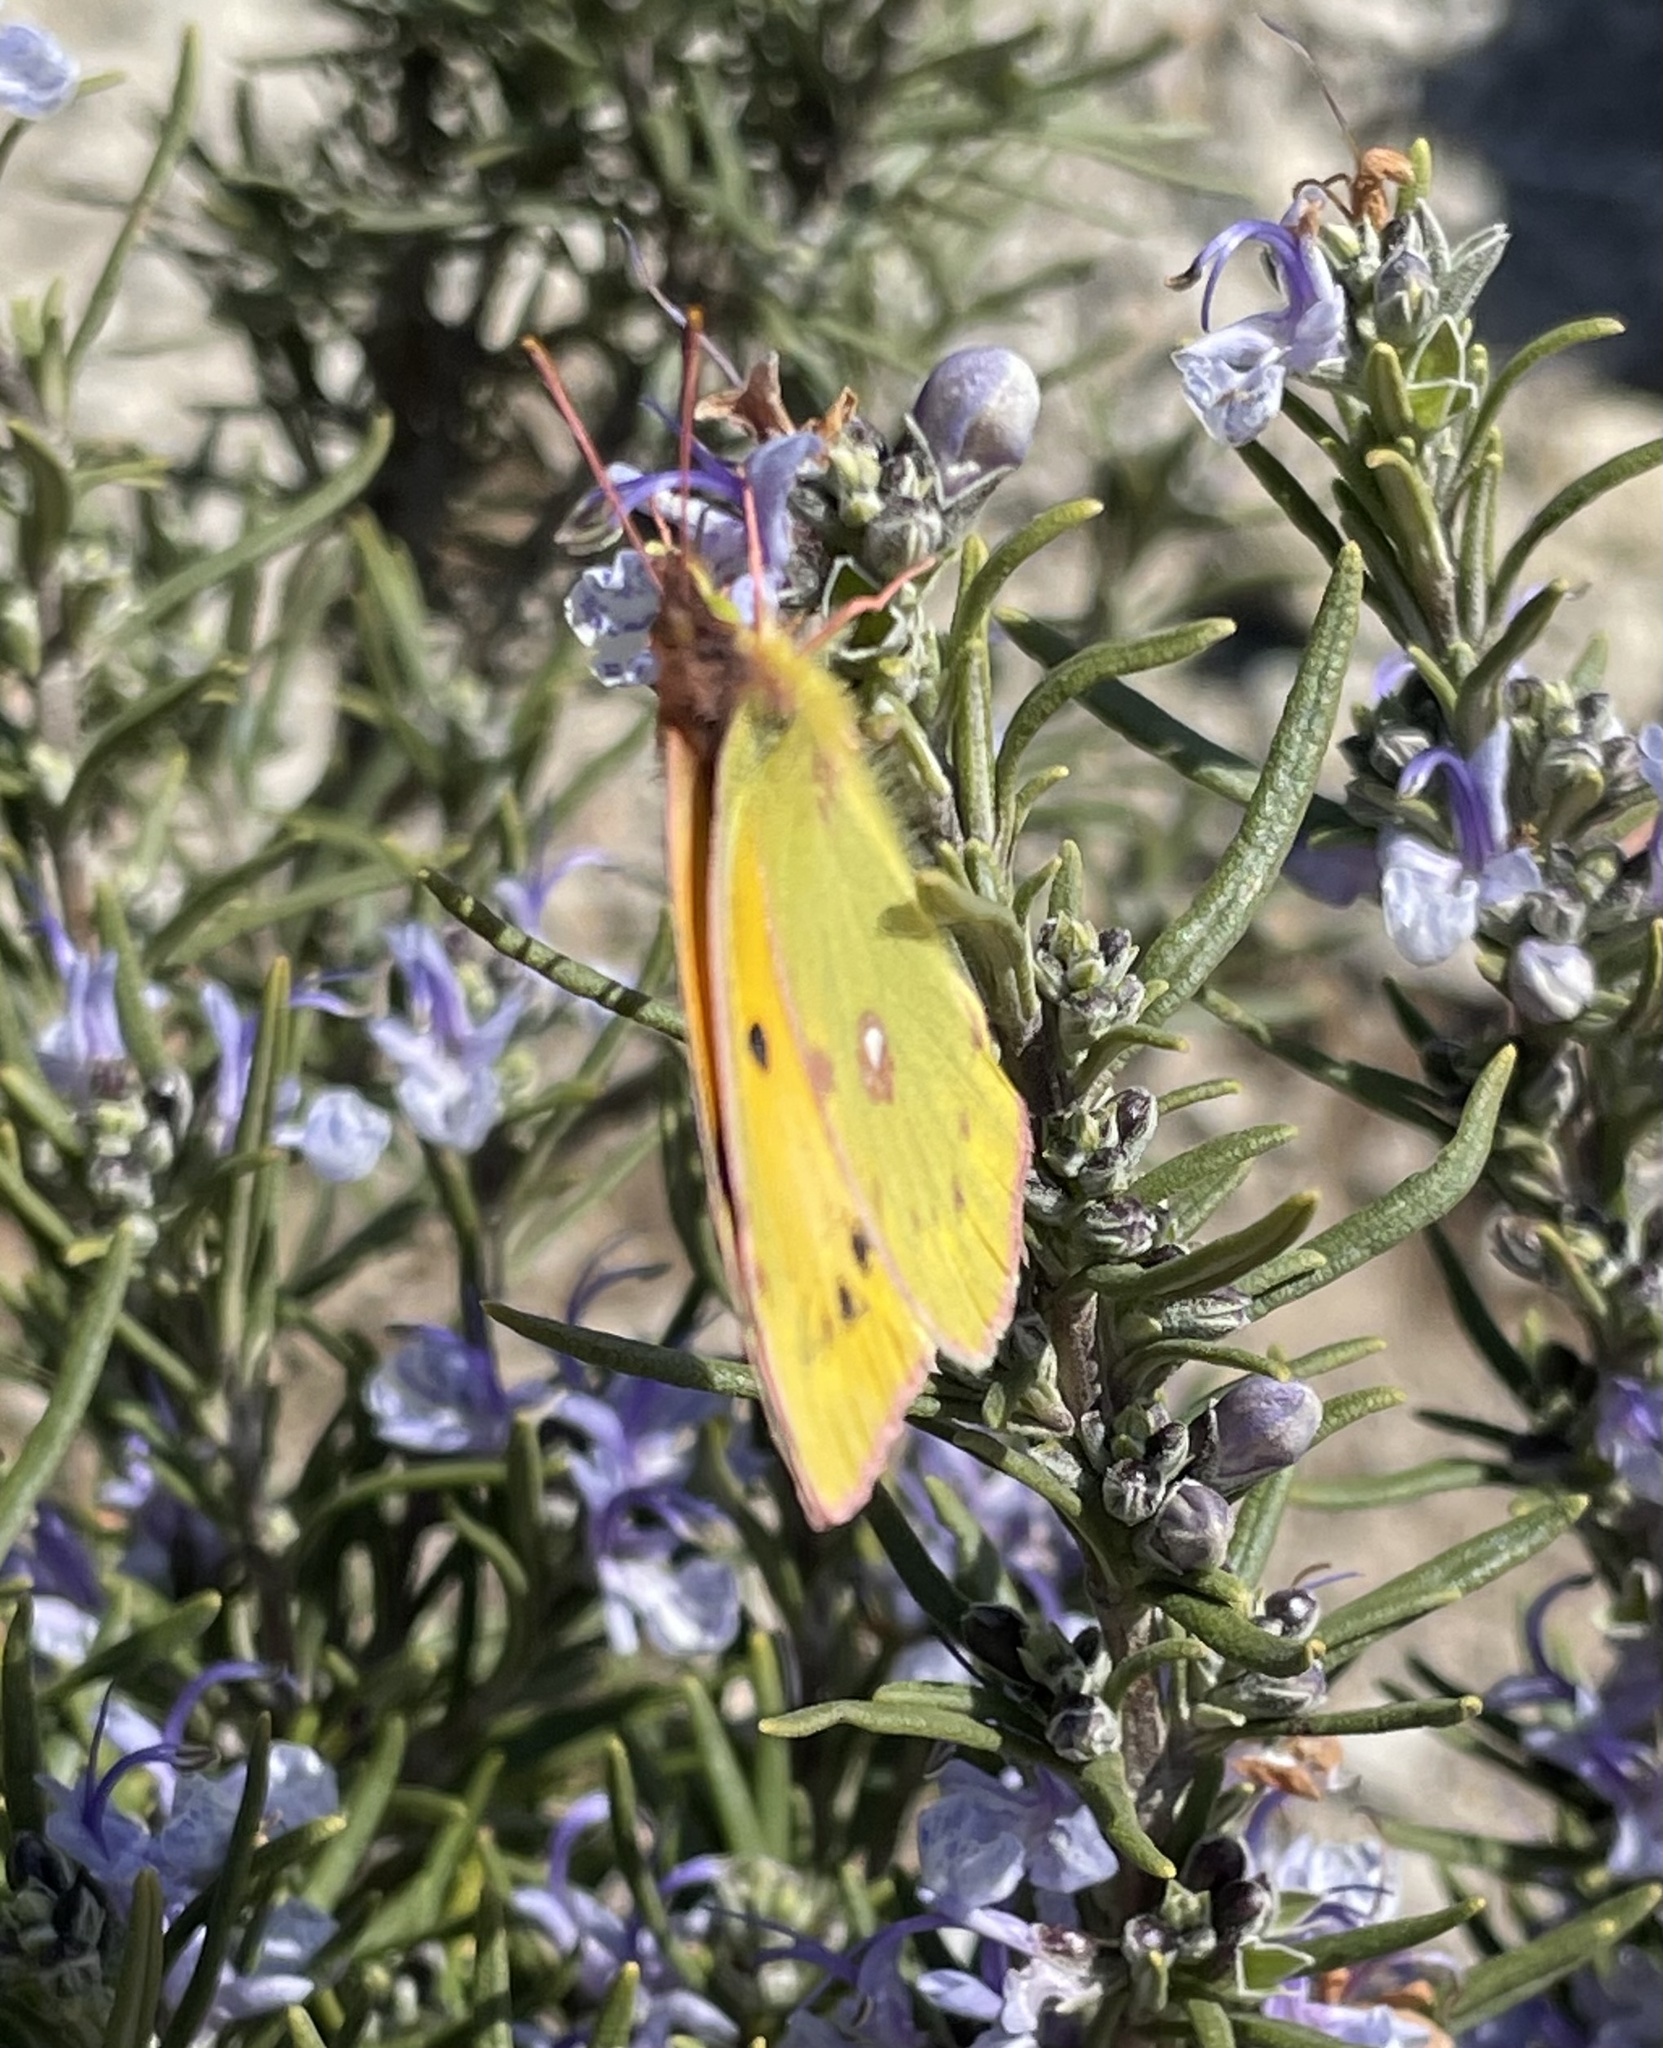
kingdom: Animalia
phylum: Arthropoda
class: Insecta
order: Lepidoptera
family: Pieridae
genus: Colias
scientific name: Colias croceus
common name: Clouded yellow
